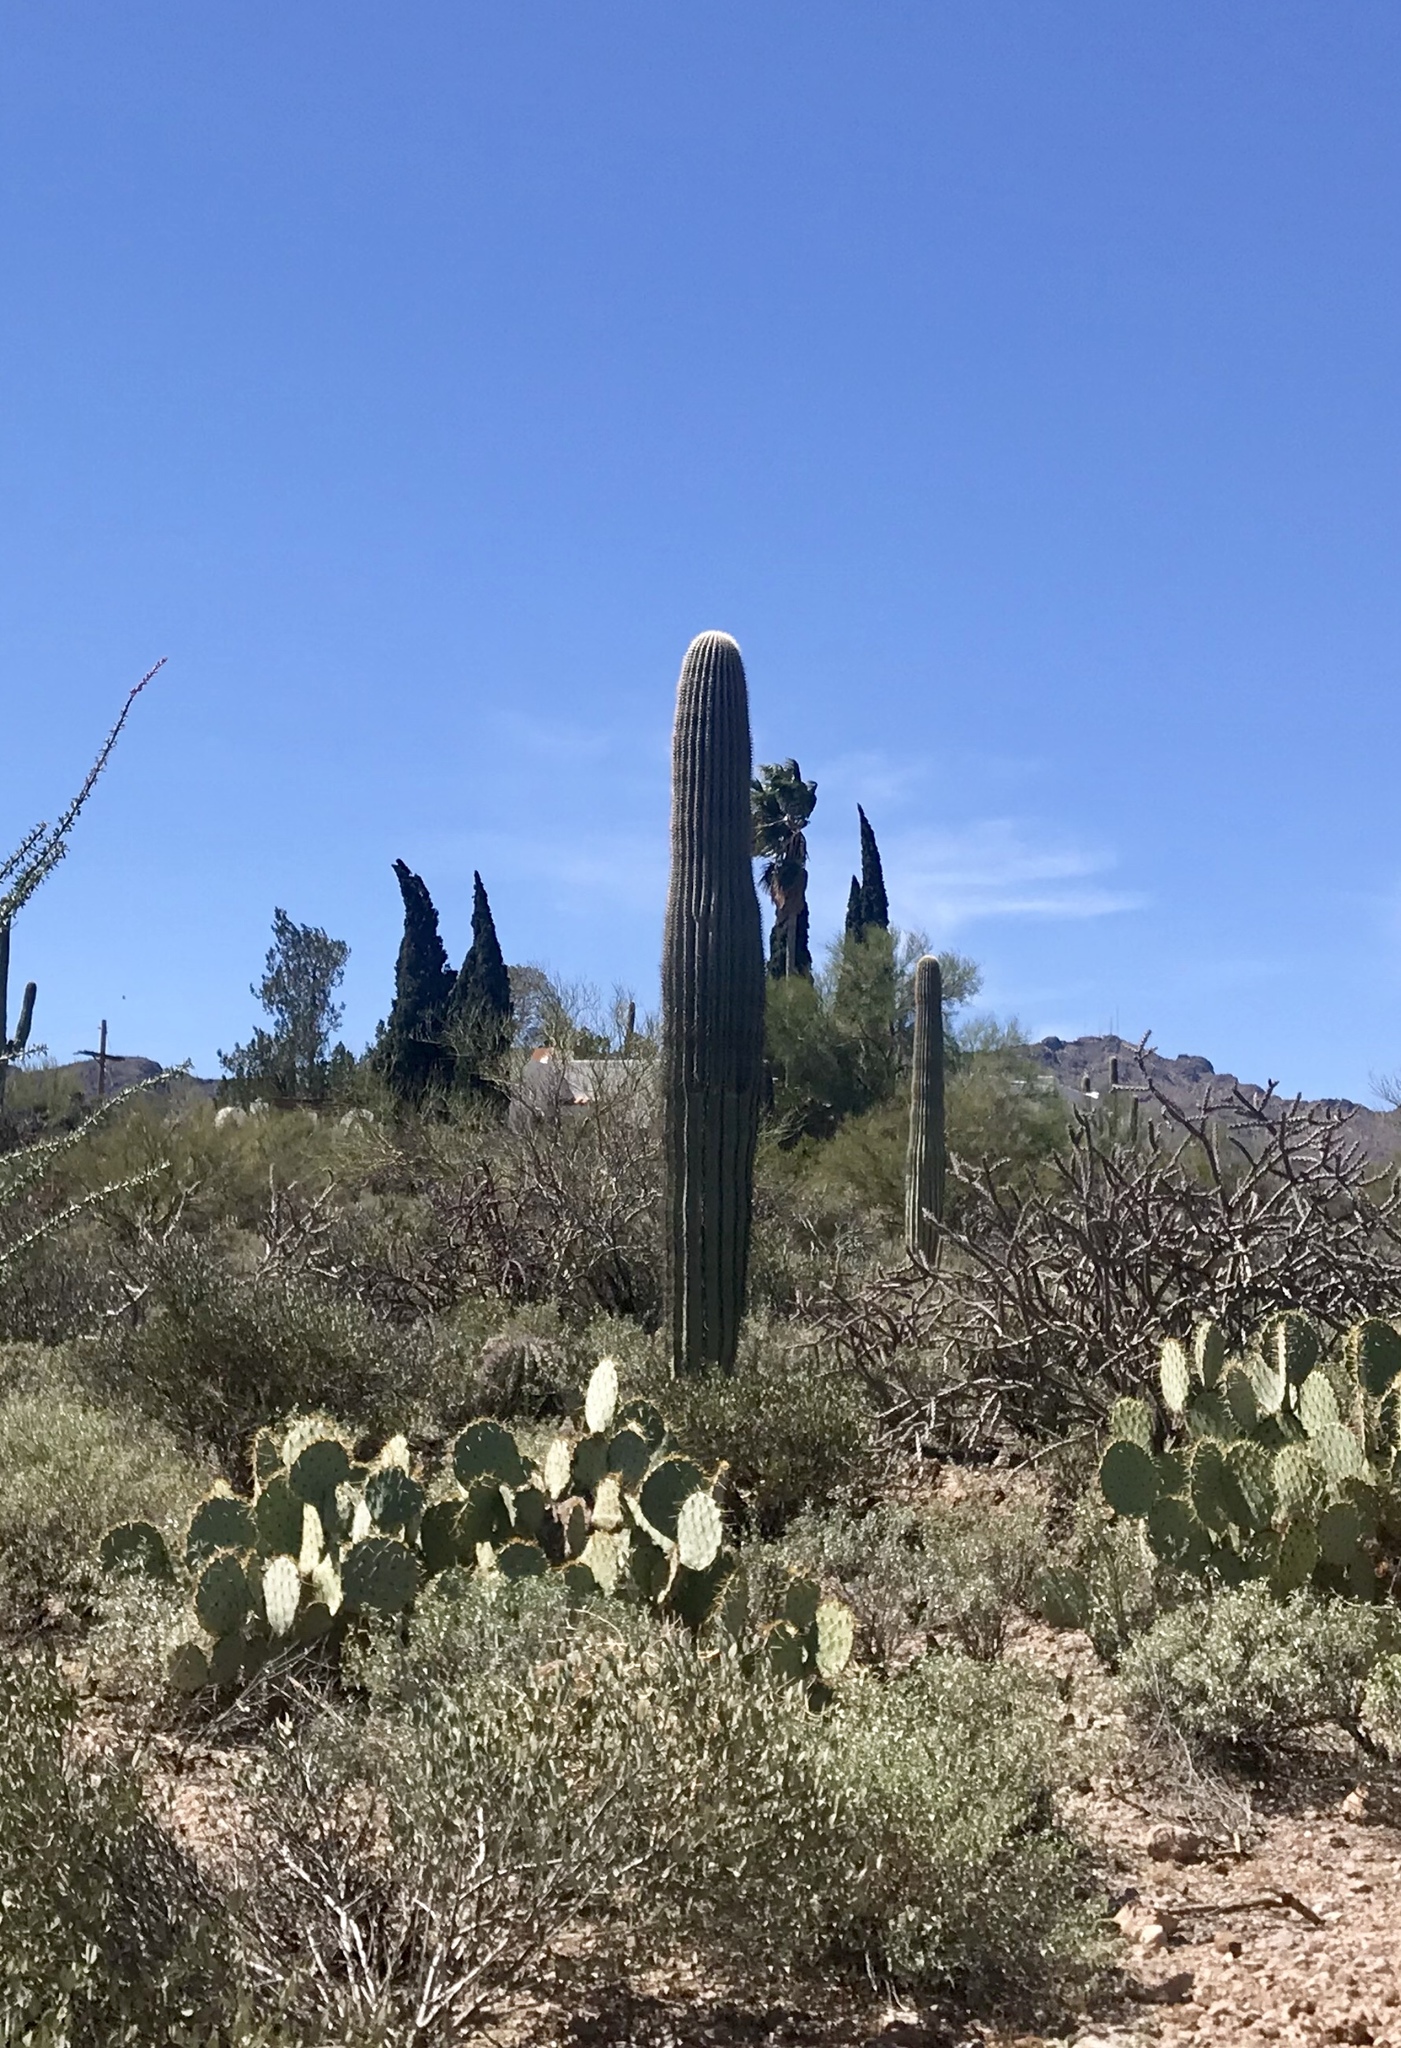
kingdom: Plantae
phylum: Tracheophyta
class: Magnoliopsida
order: Caryophyllales
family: Cactaceae
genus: Carnegiea
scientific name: Carnegiea gigantea
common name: Saguaro
